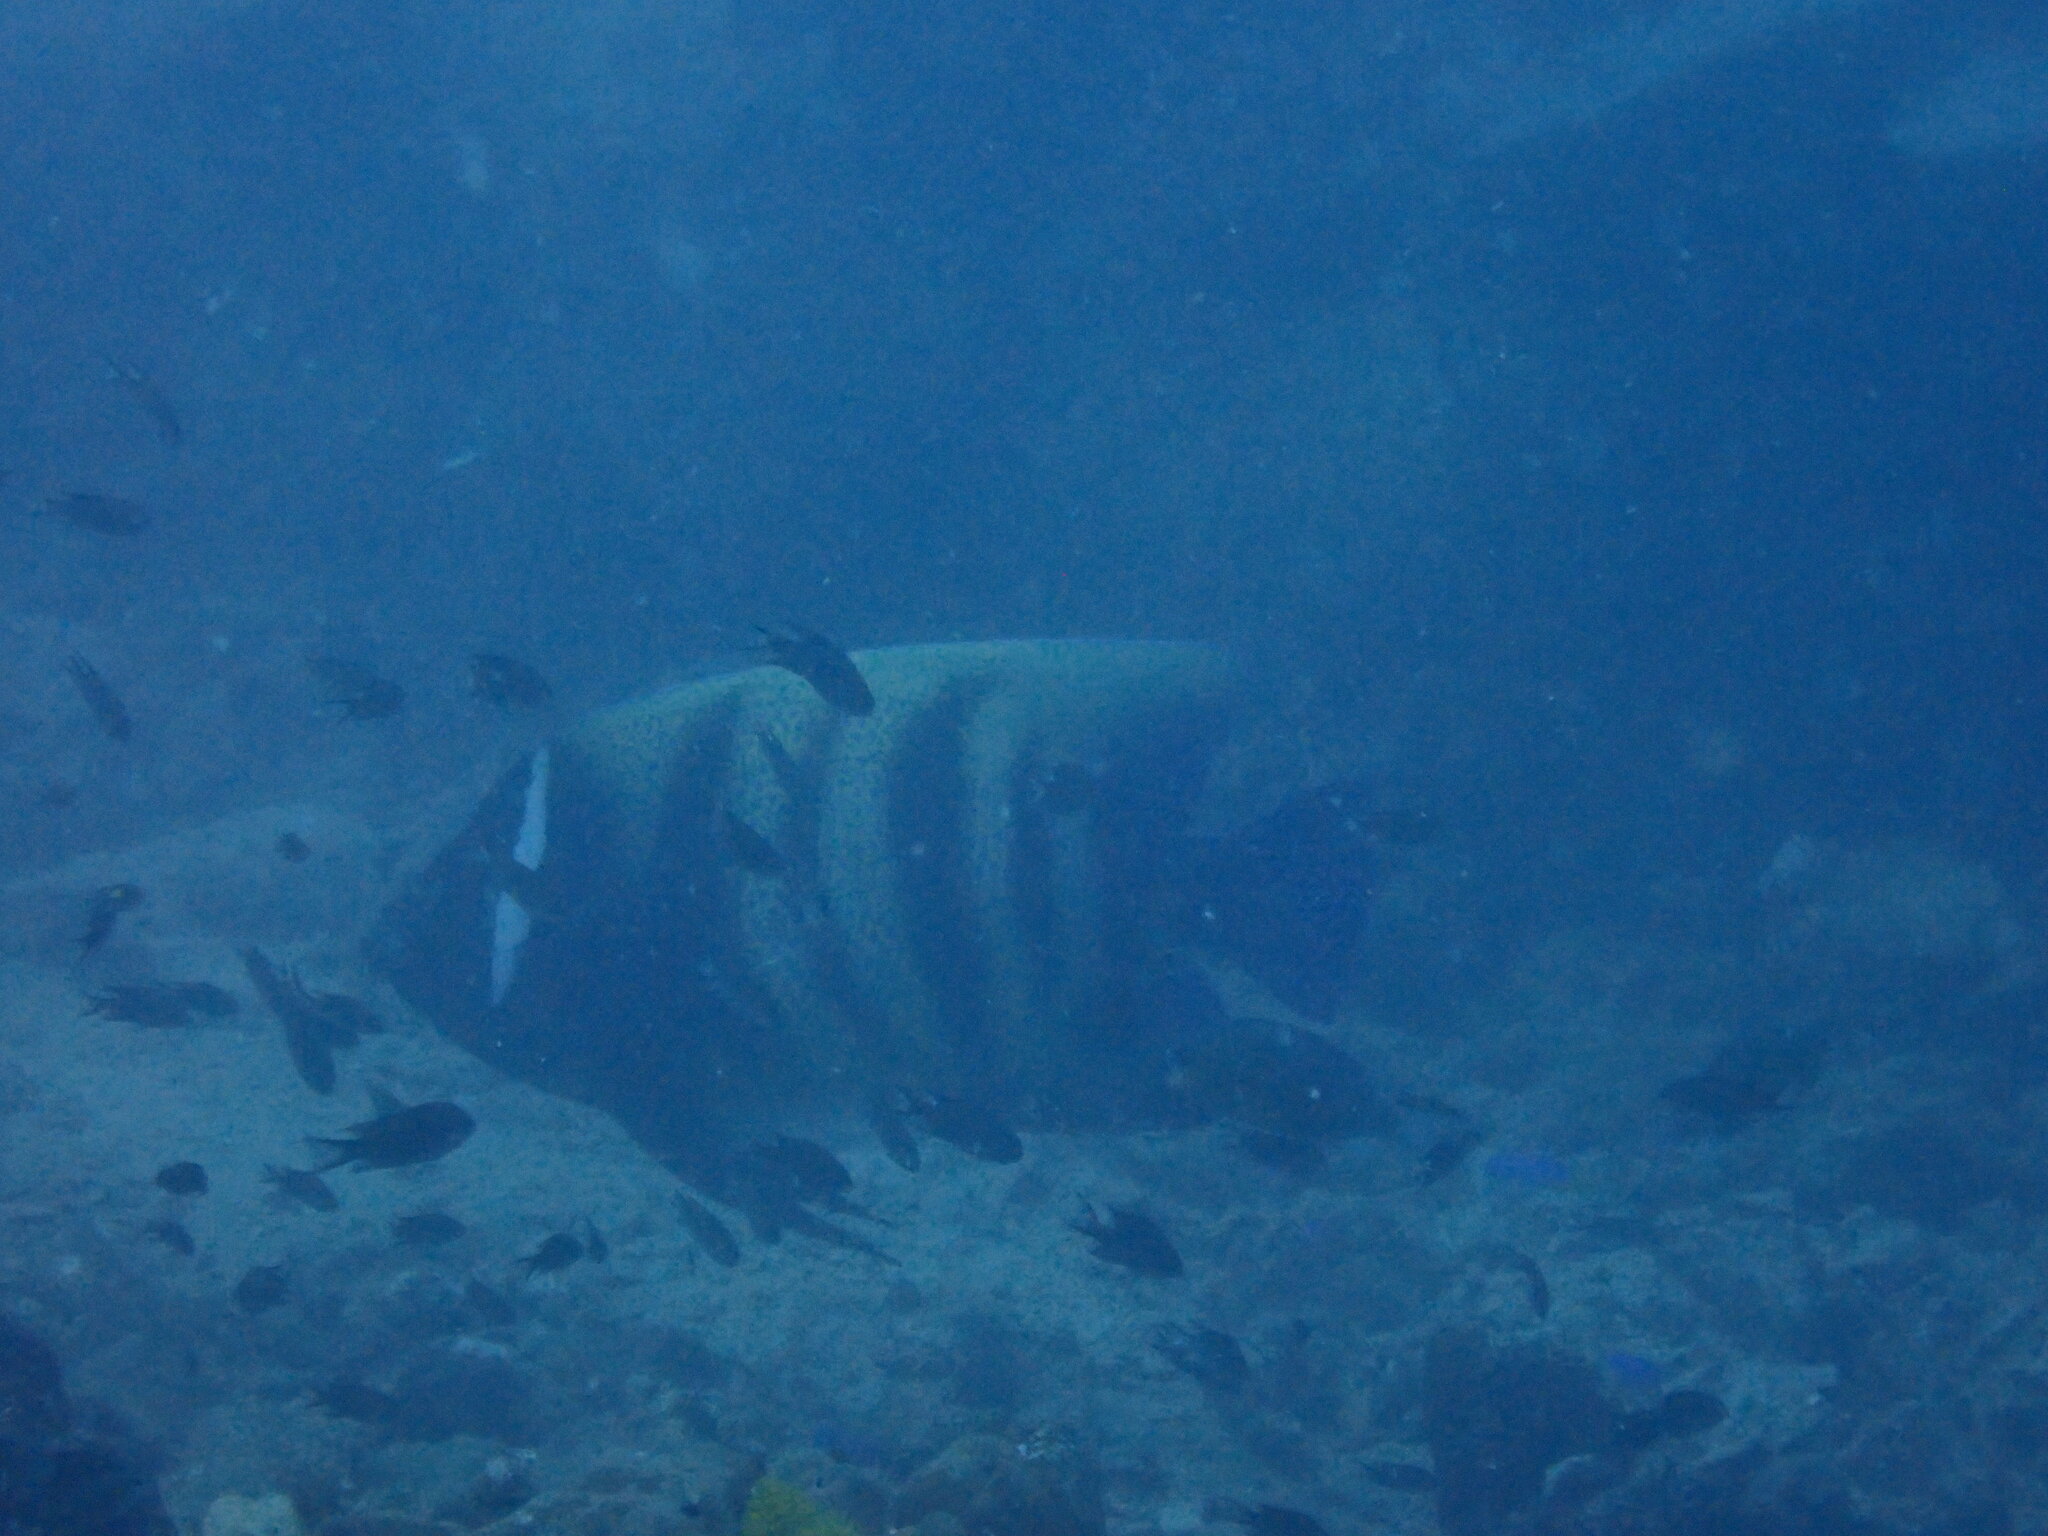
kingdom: Animalia
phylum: Chordata
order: Perciformes
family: Pomacanthidae
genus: Pomacanthus
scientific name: Pomacanthus sexstriatus
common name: Six-banded angelfish
